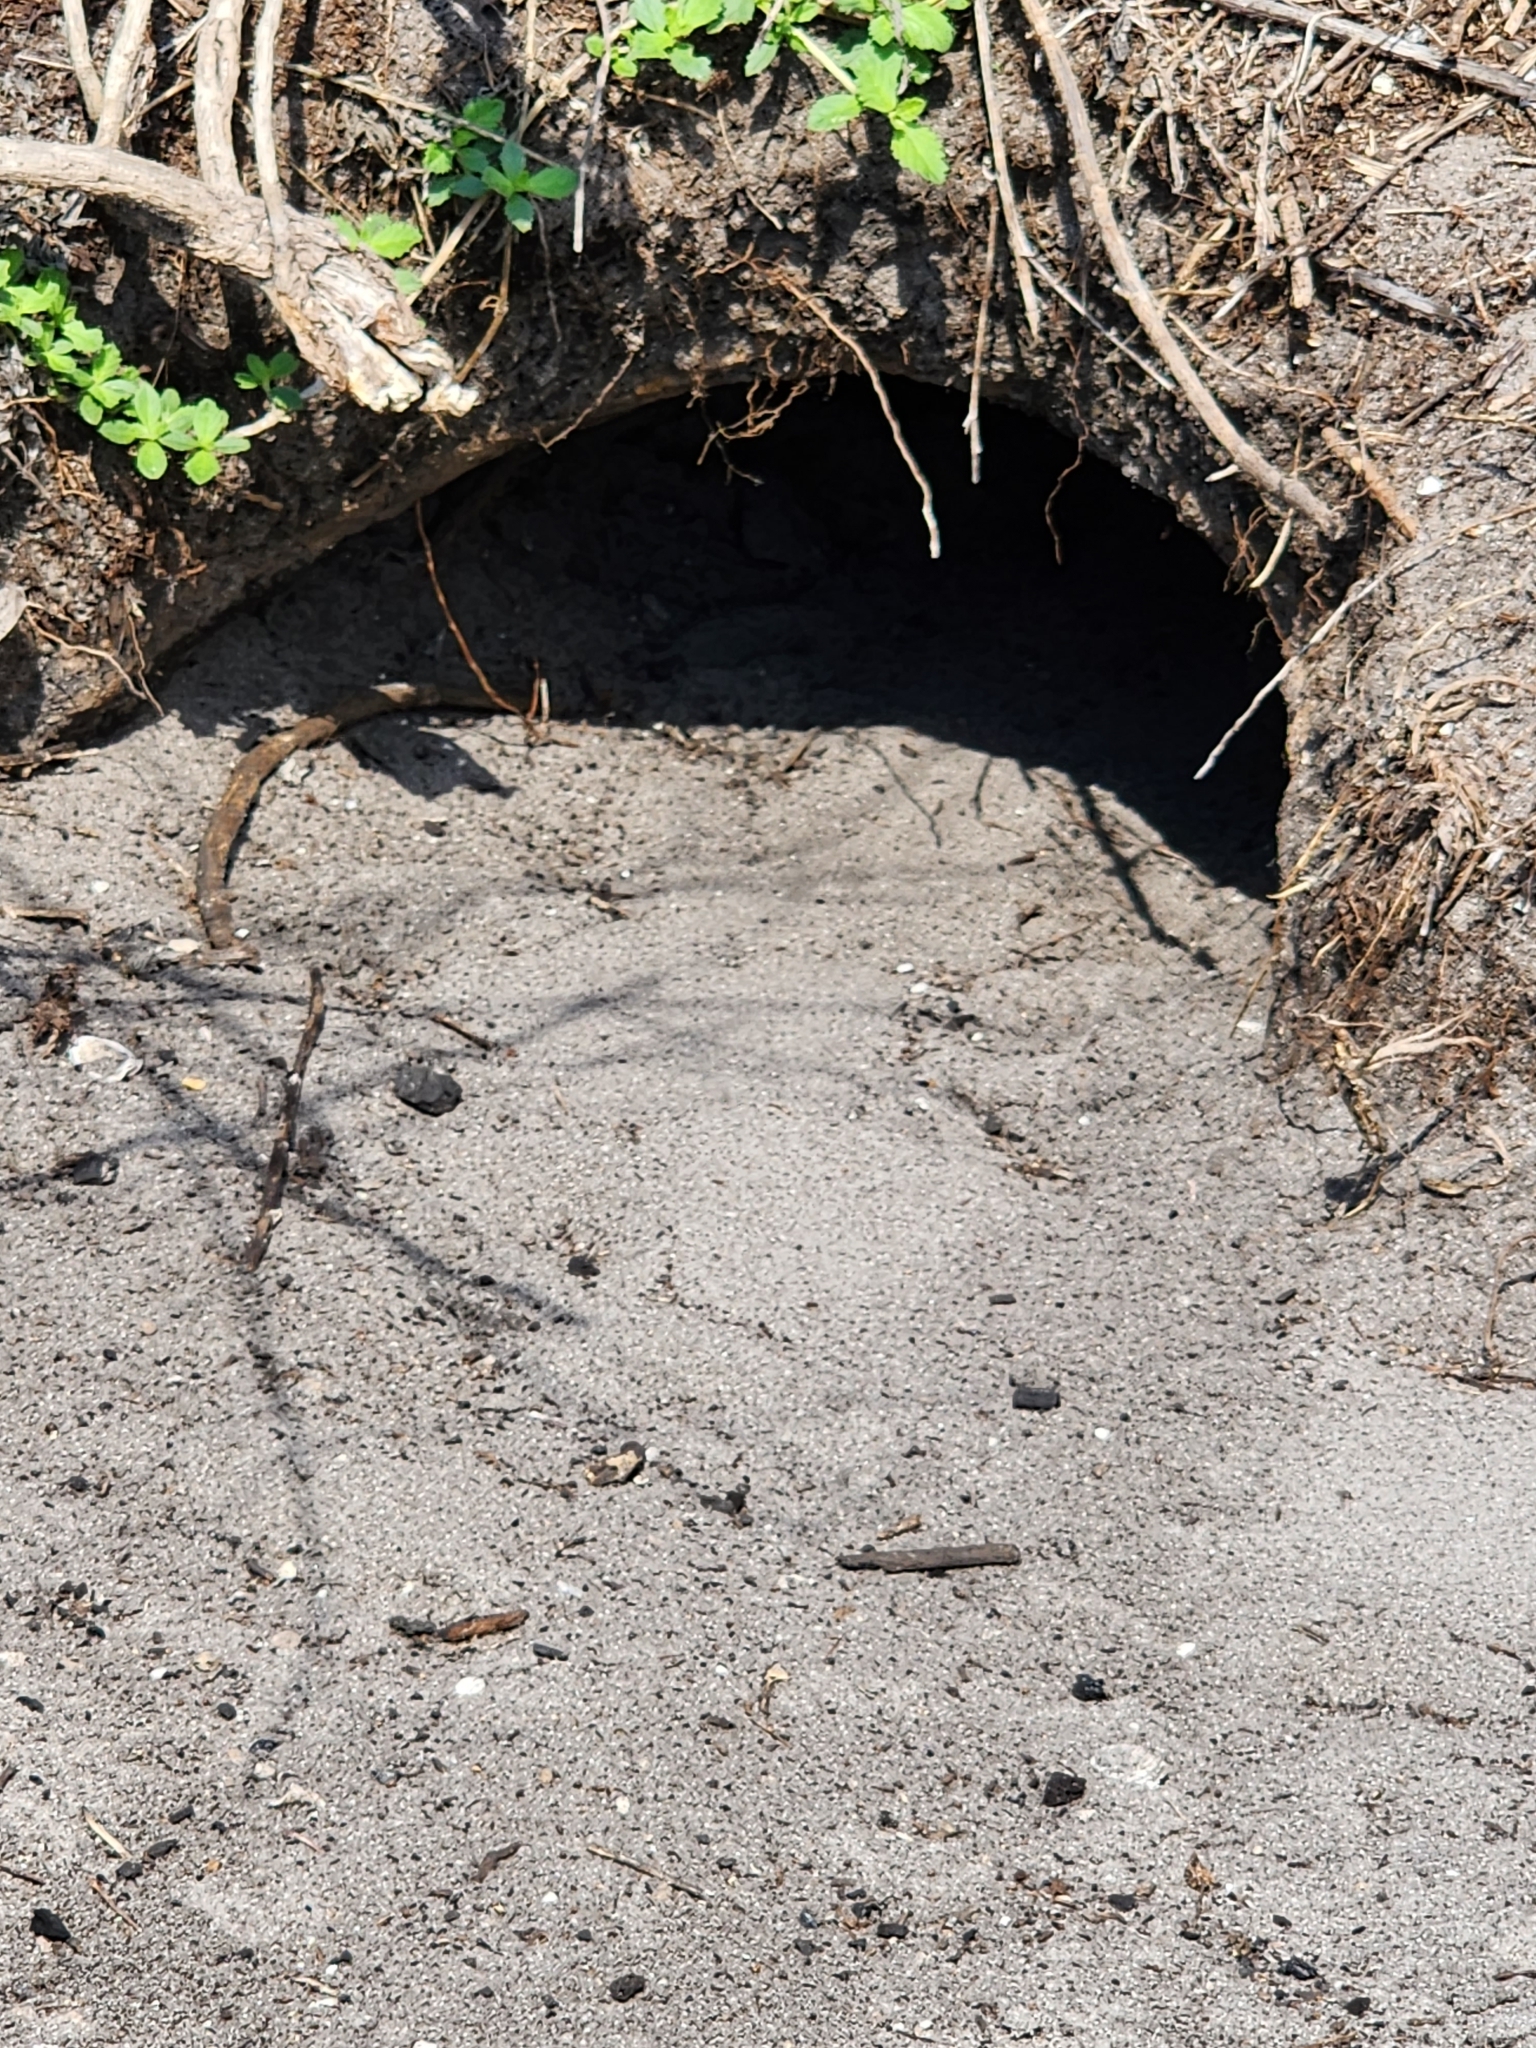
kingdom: Animalia
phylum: Chordata
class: Testudines
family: Testudinidae
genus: Gopherus
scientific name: Gopherus polyphemus
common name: Florida gopher tortoise
